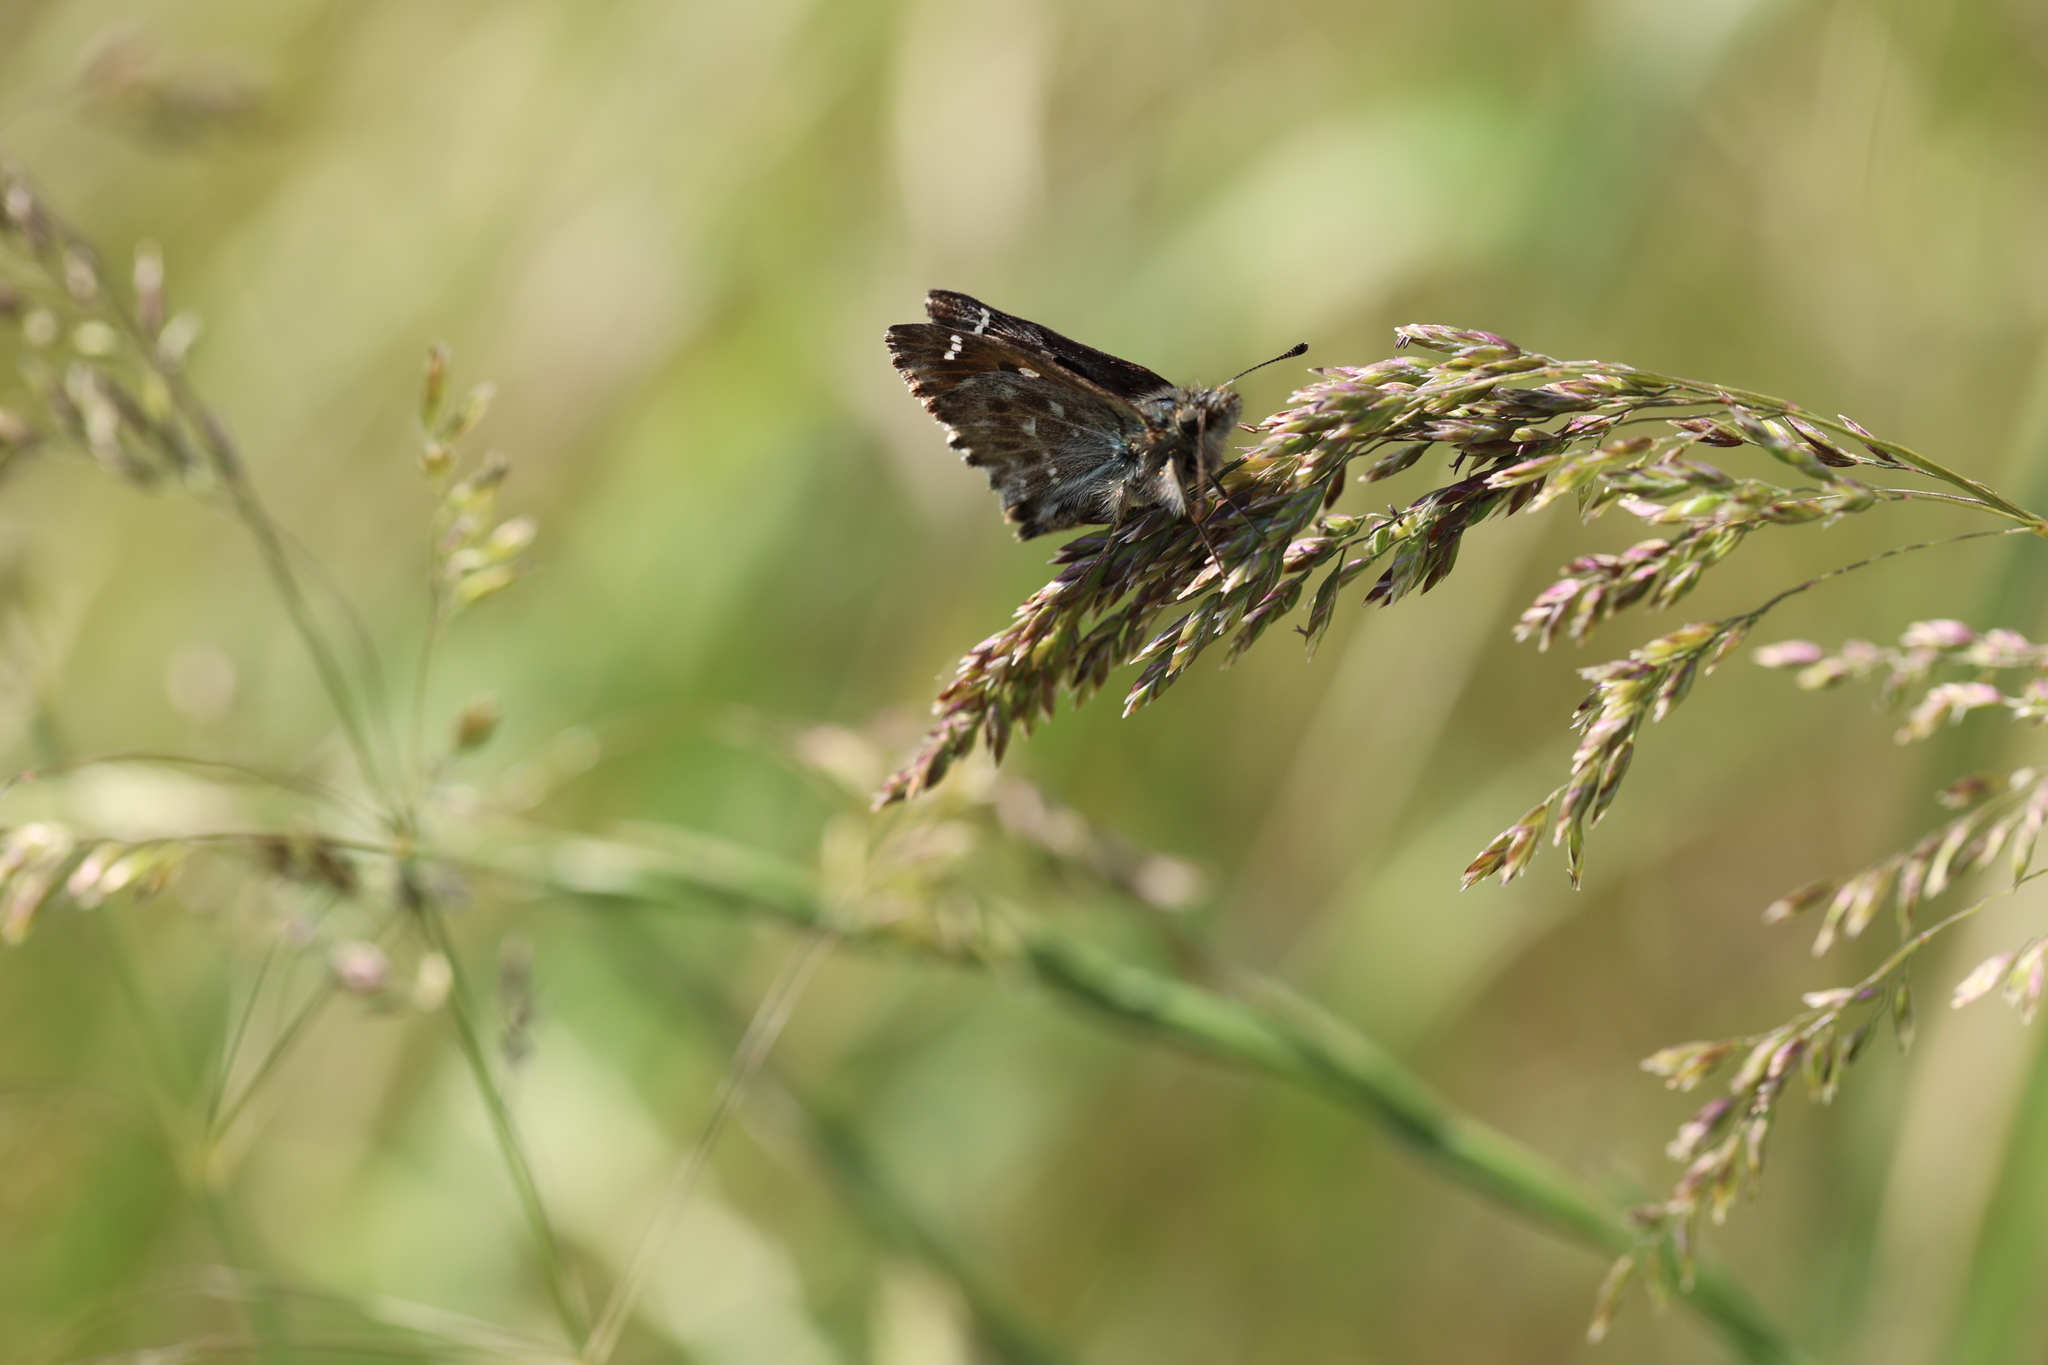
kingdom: Animalia
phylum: Arthropoda
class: Insecta
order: Lepidoptera
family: Hesperiidae
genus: Carcharodus
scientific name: Carcharodus alceae
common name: Mallow skipper
